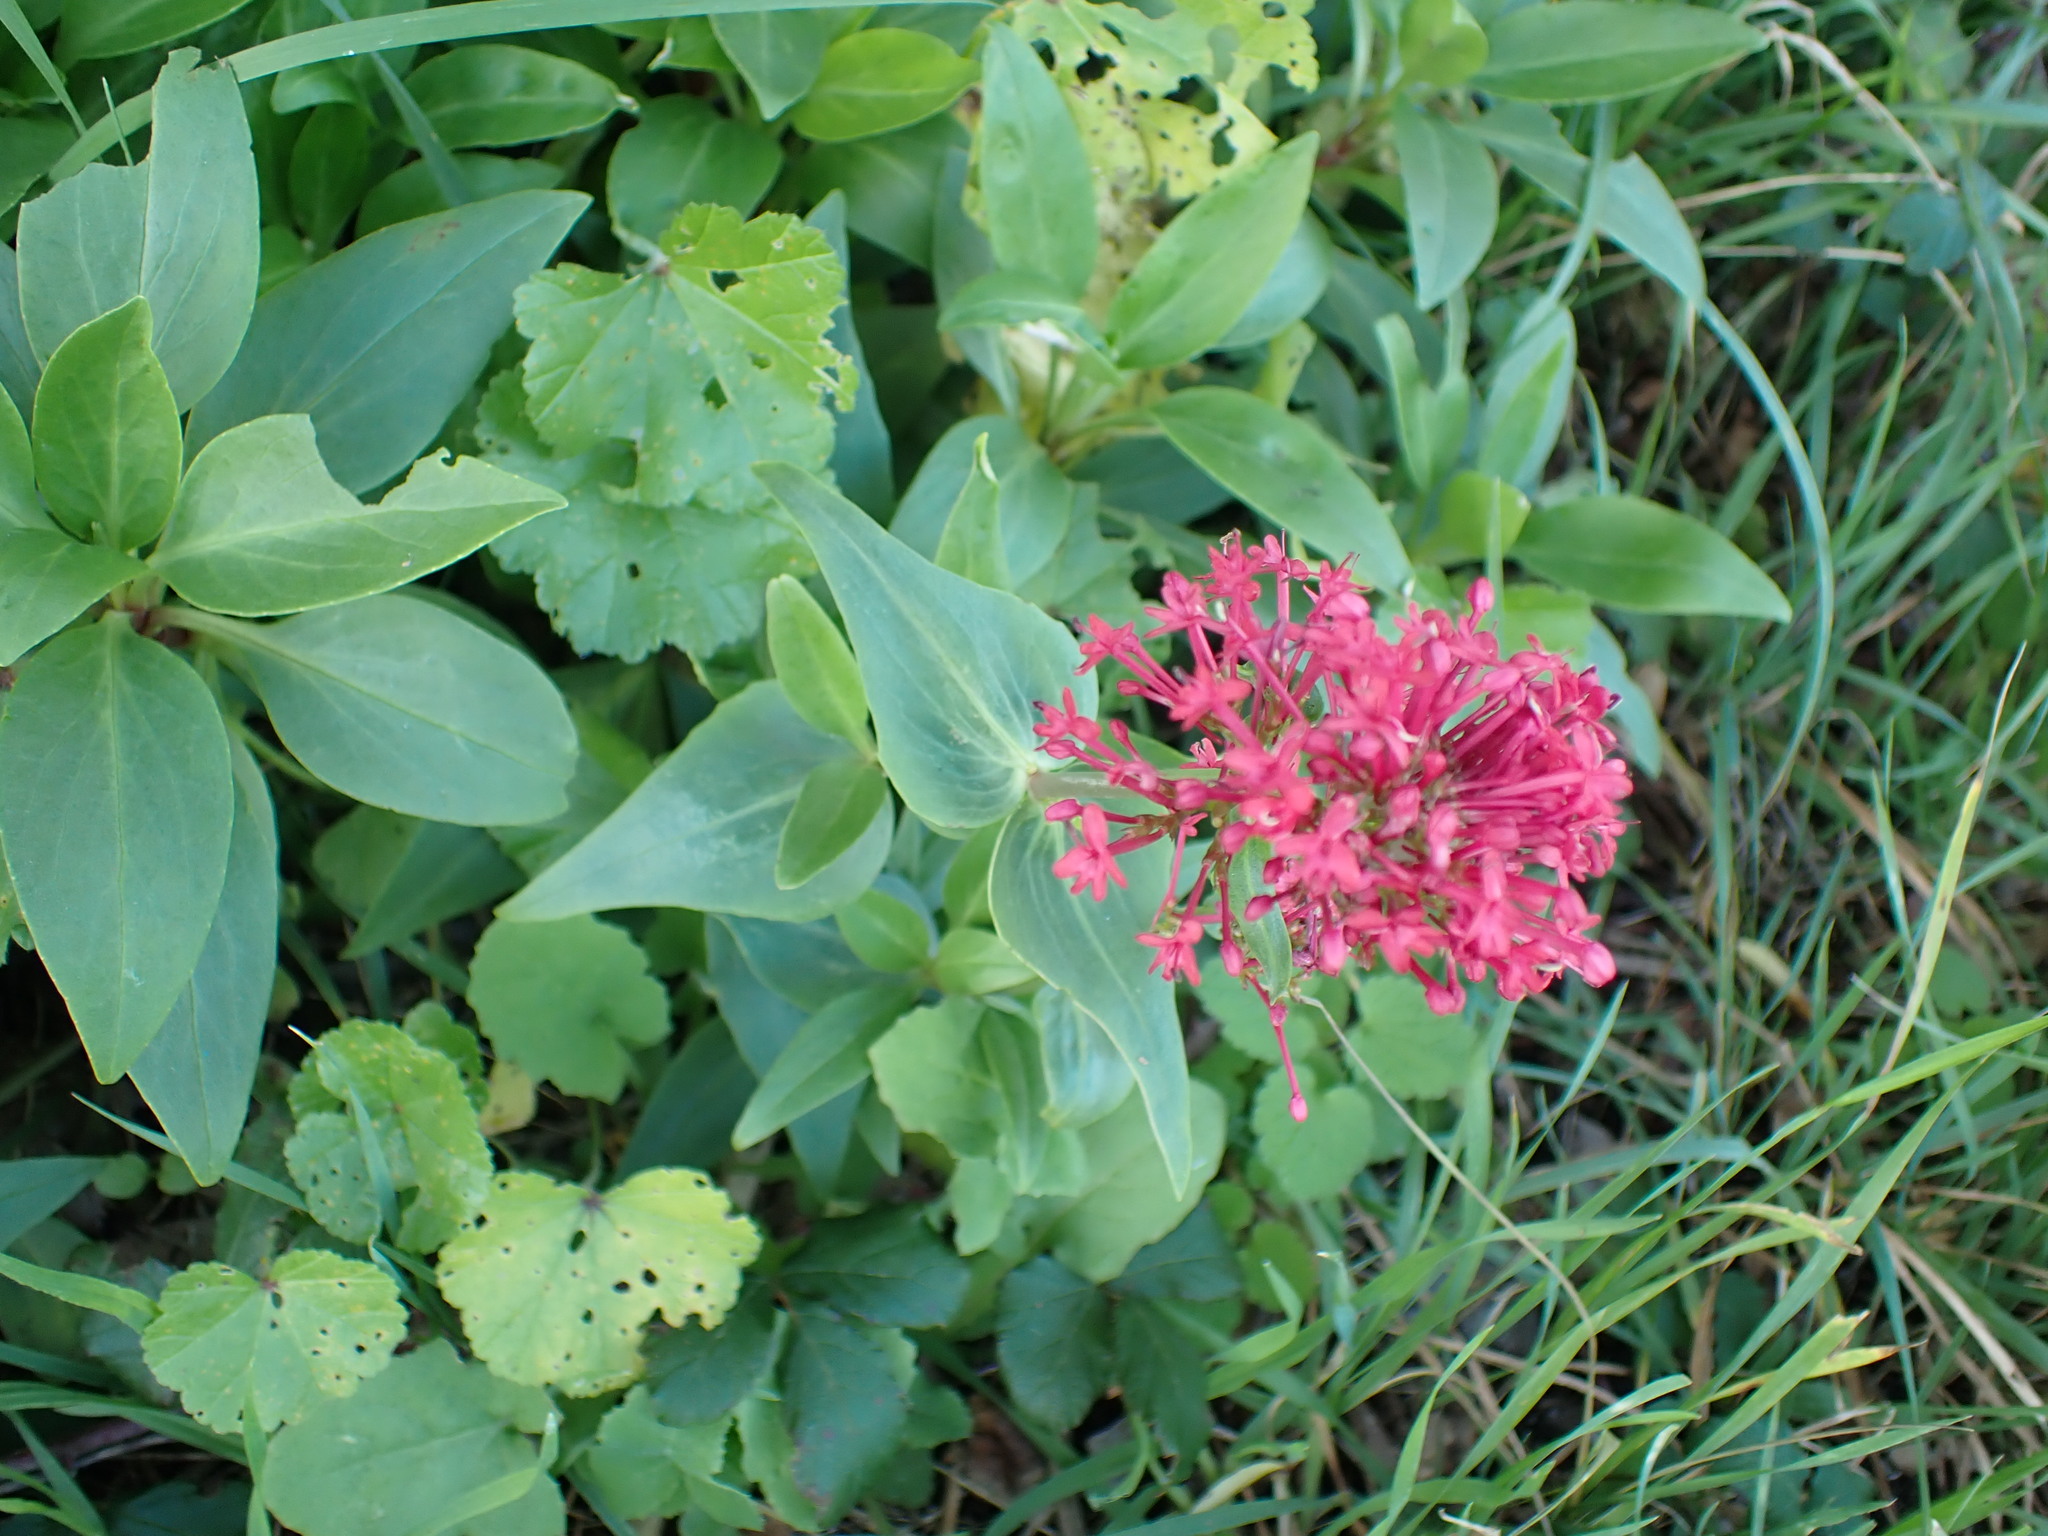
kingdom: Plantae
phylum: Tracheophyta
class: Magnoliopsida
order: Dipsacales
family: Caprifoliaceae
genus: Centranthus
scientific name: Centranthus ruber
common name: Red valerian
